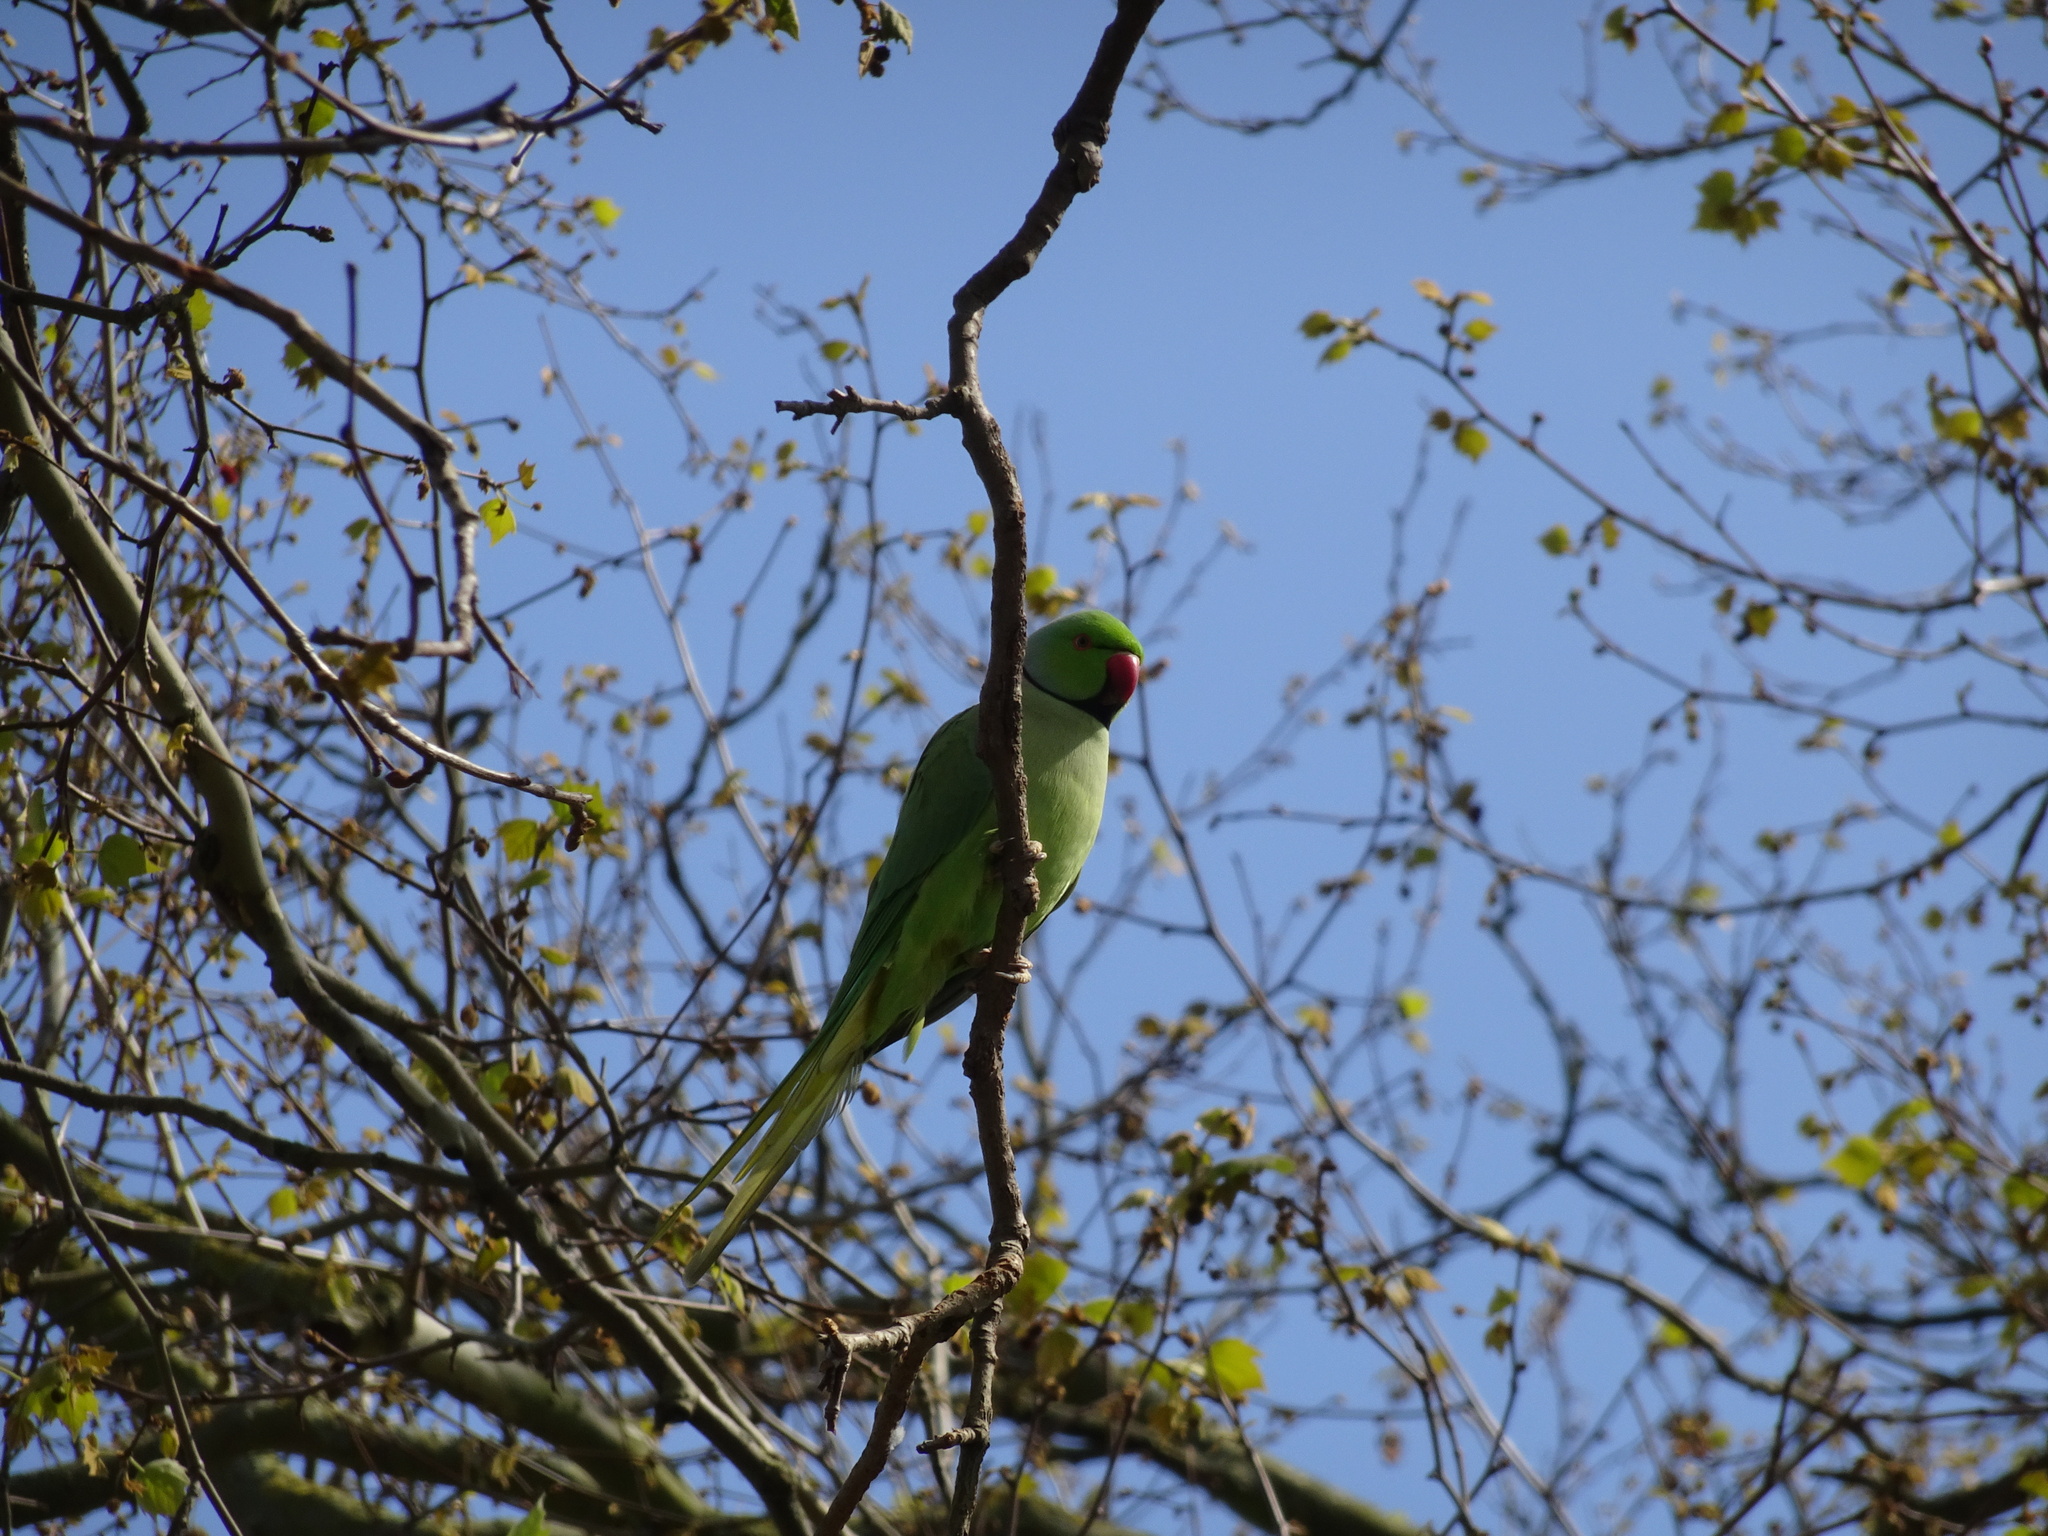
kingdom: Animalia
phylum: Chordata
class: Aves
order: Psittaciformes
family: Psittacidae
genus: Psittacula
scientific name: Psittacula krameri
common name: Rose-ringed parakeet
